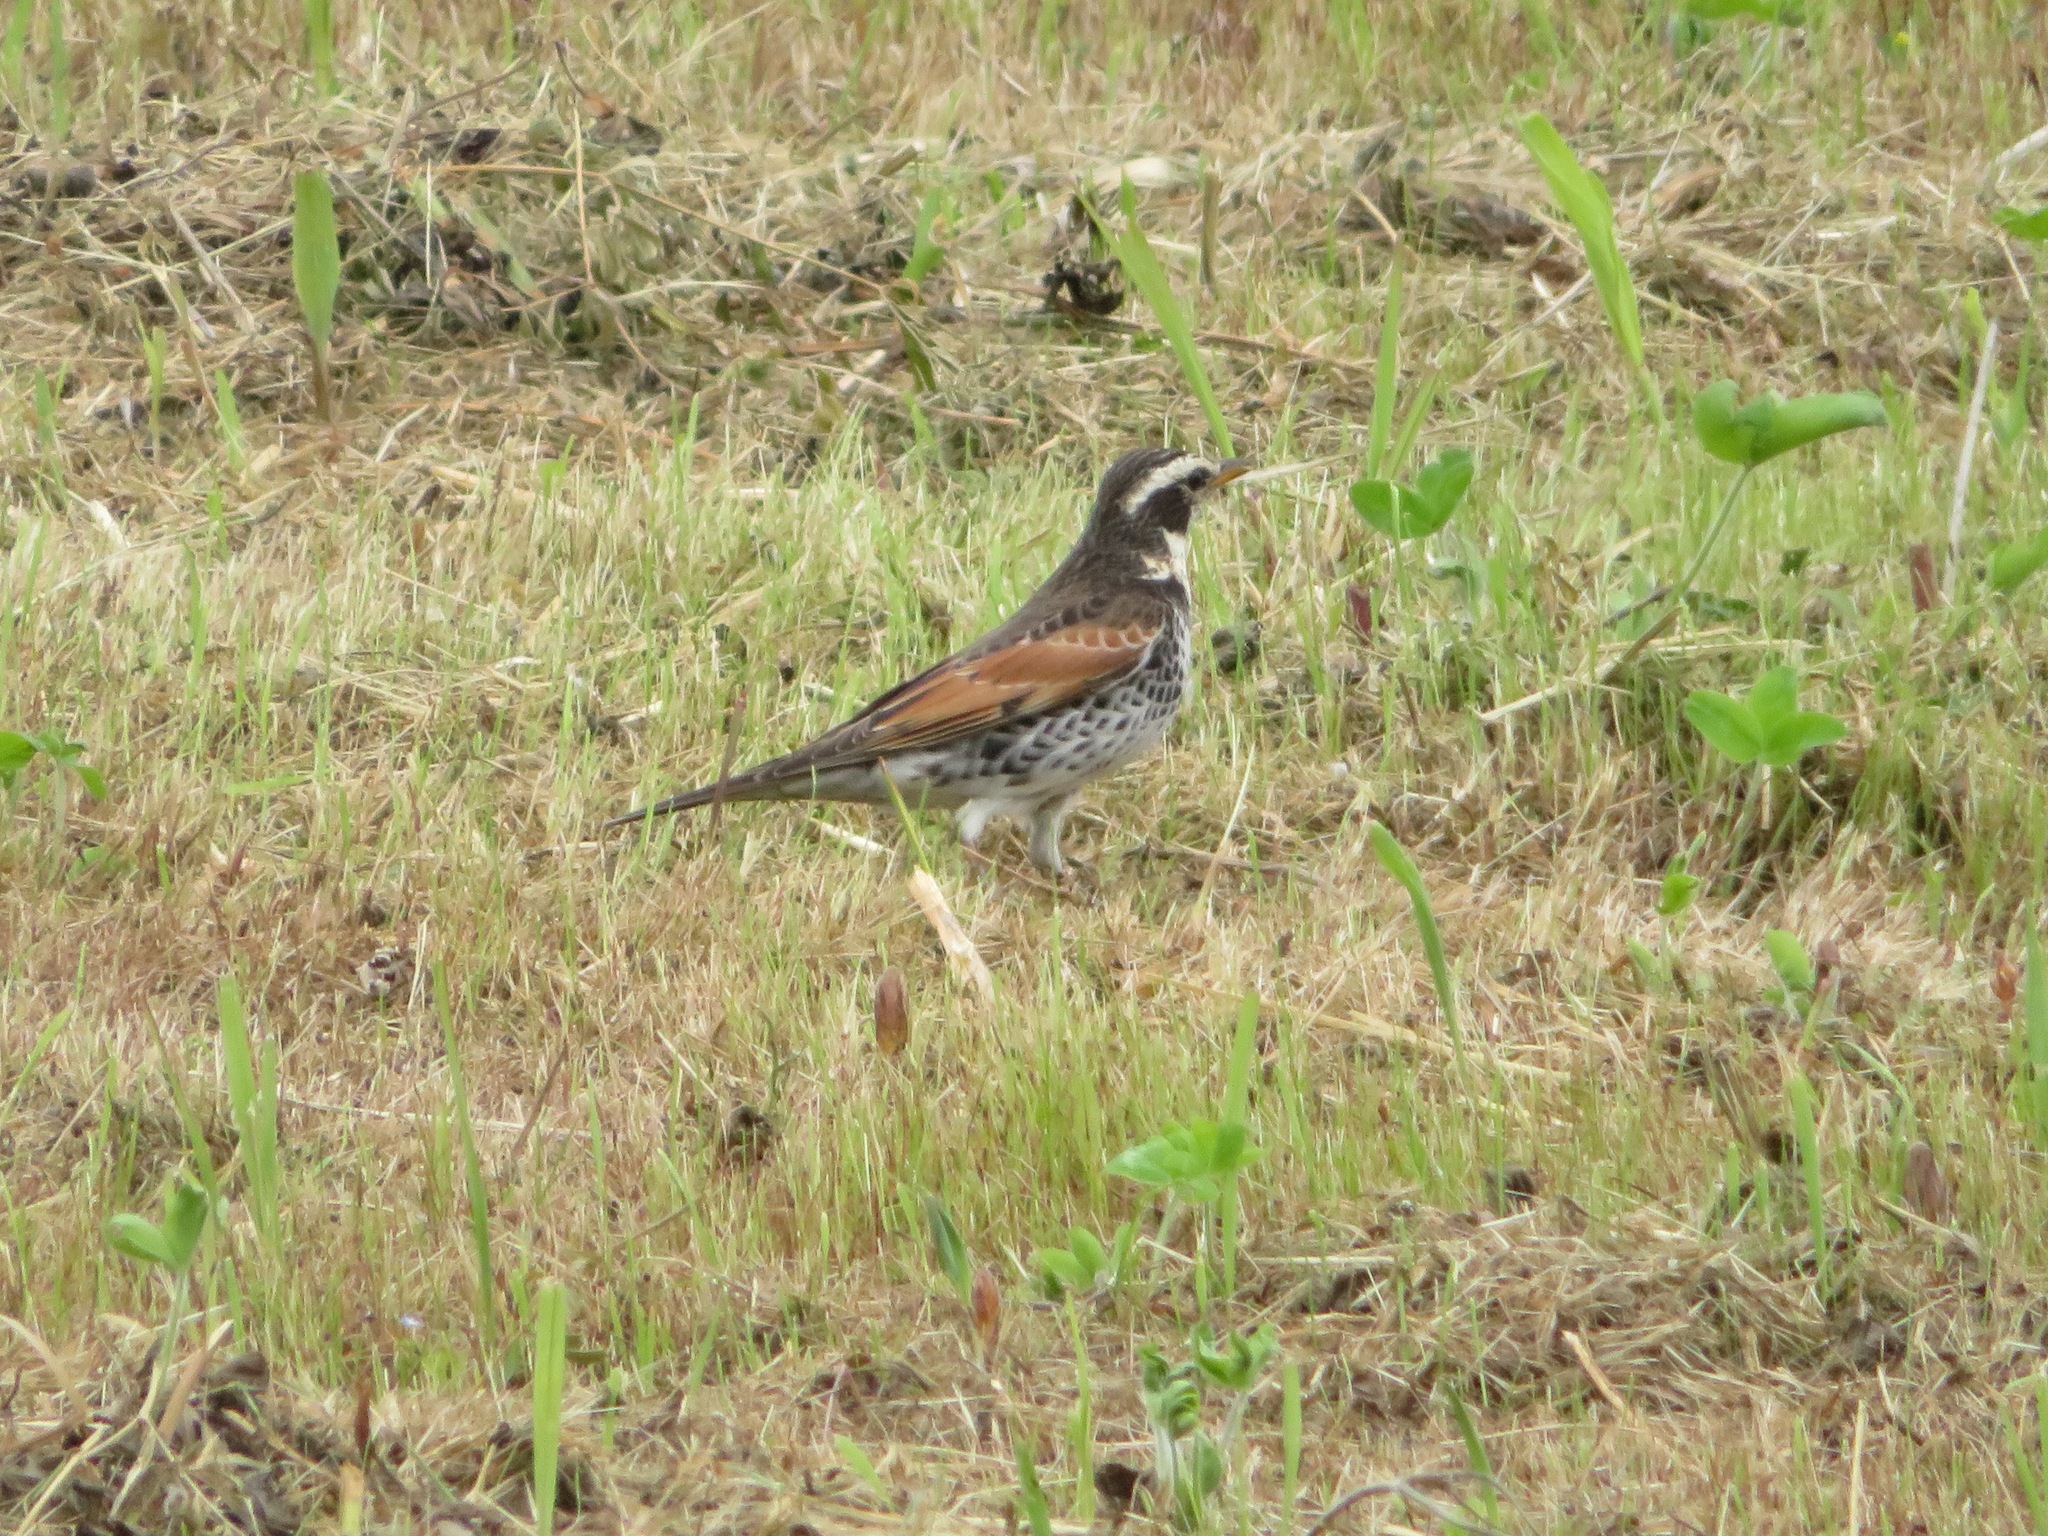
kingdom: Animalia
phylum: Chordata
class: Aves
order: Passeriformes
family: Turdidae
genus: Turdus
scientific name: Turdus eunomus
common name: Dusky thrush
